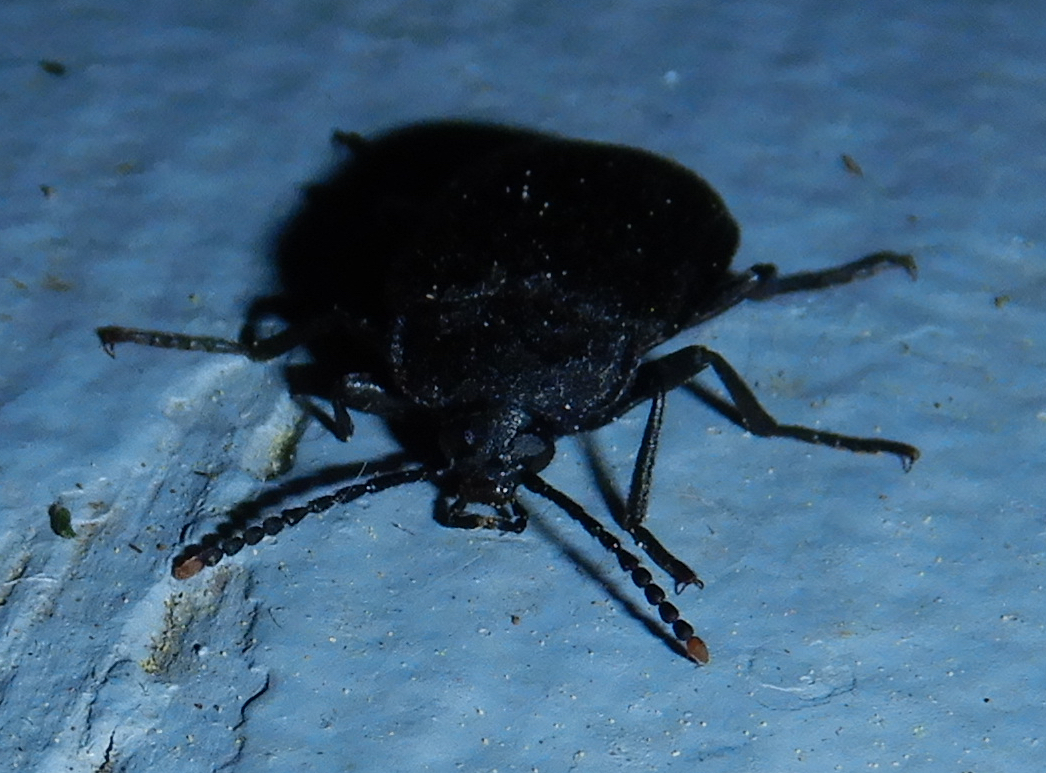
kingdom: Animalia
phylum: Arthropoda
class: Insecta
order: Coleoptera
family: Tetratomidae
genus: Penthe
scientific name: Penthe pimelia
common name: Velvety bark beetle
